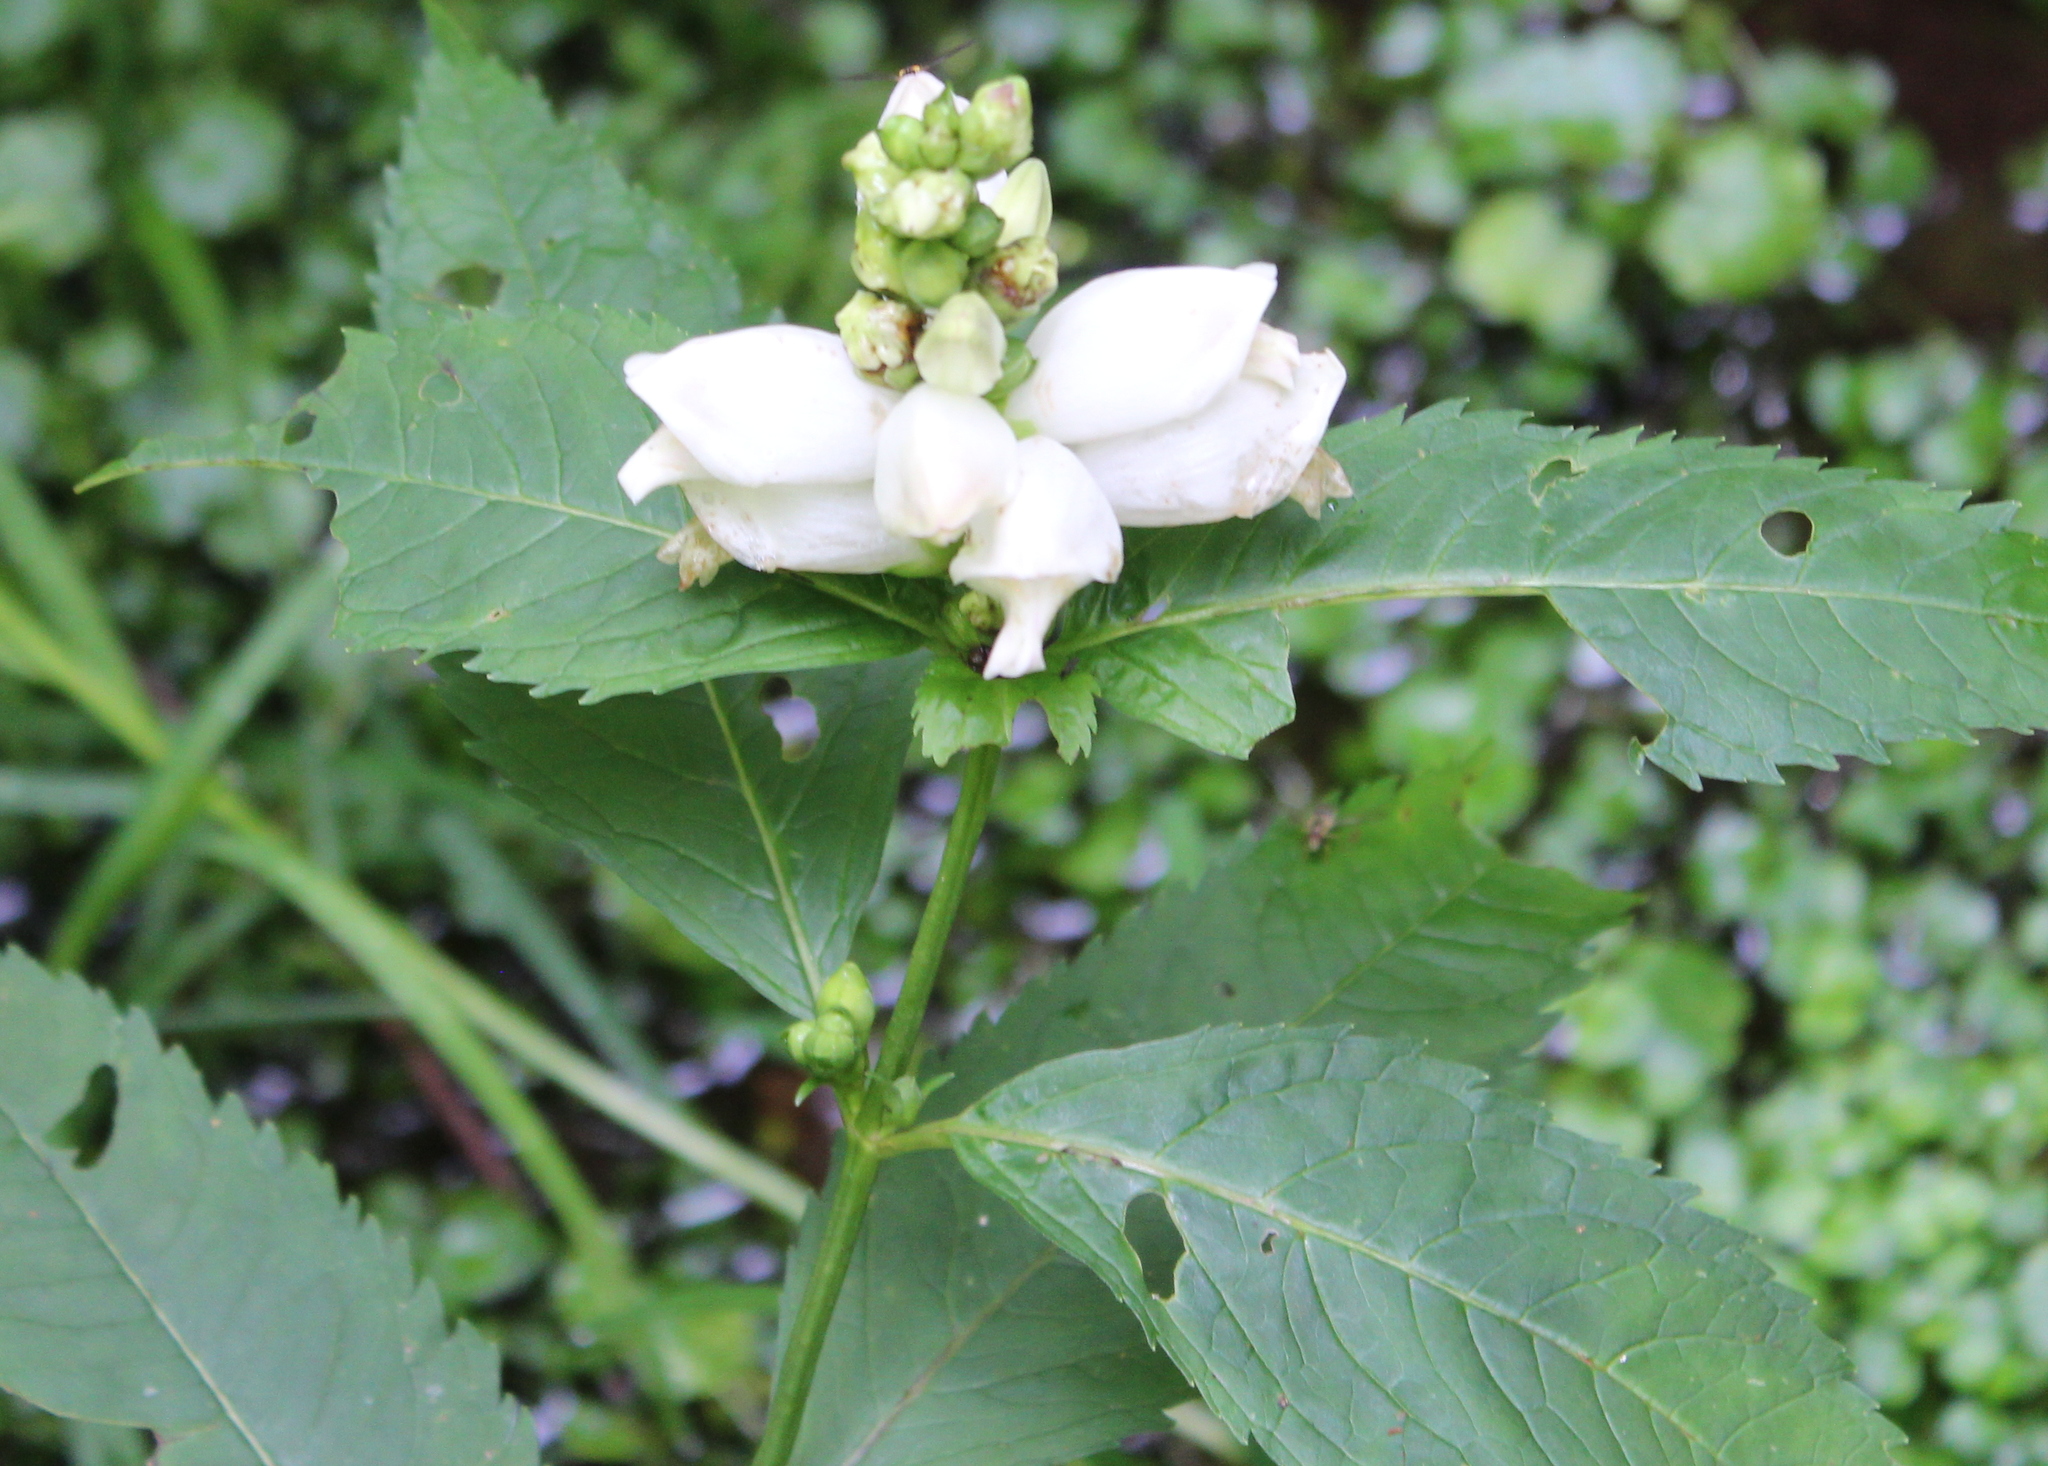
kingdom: Plantae
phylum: Tracheophyta
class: Magnoliopsida
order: Lamiales
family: Plantaginaceae
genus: Chelone
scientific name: Chelone glabra
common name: Snakehead
